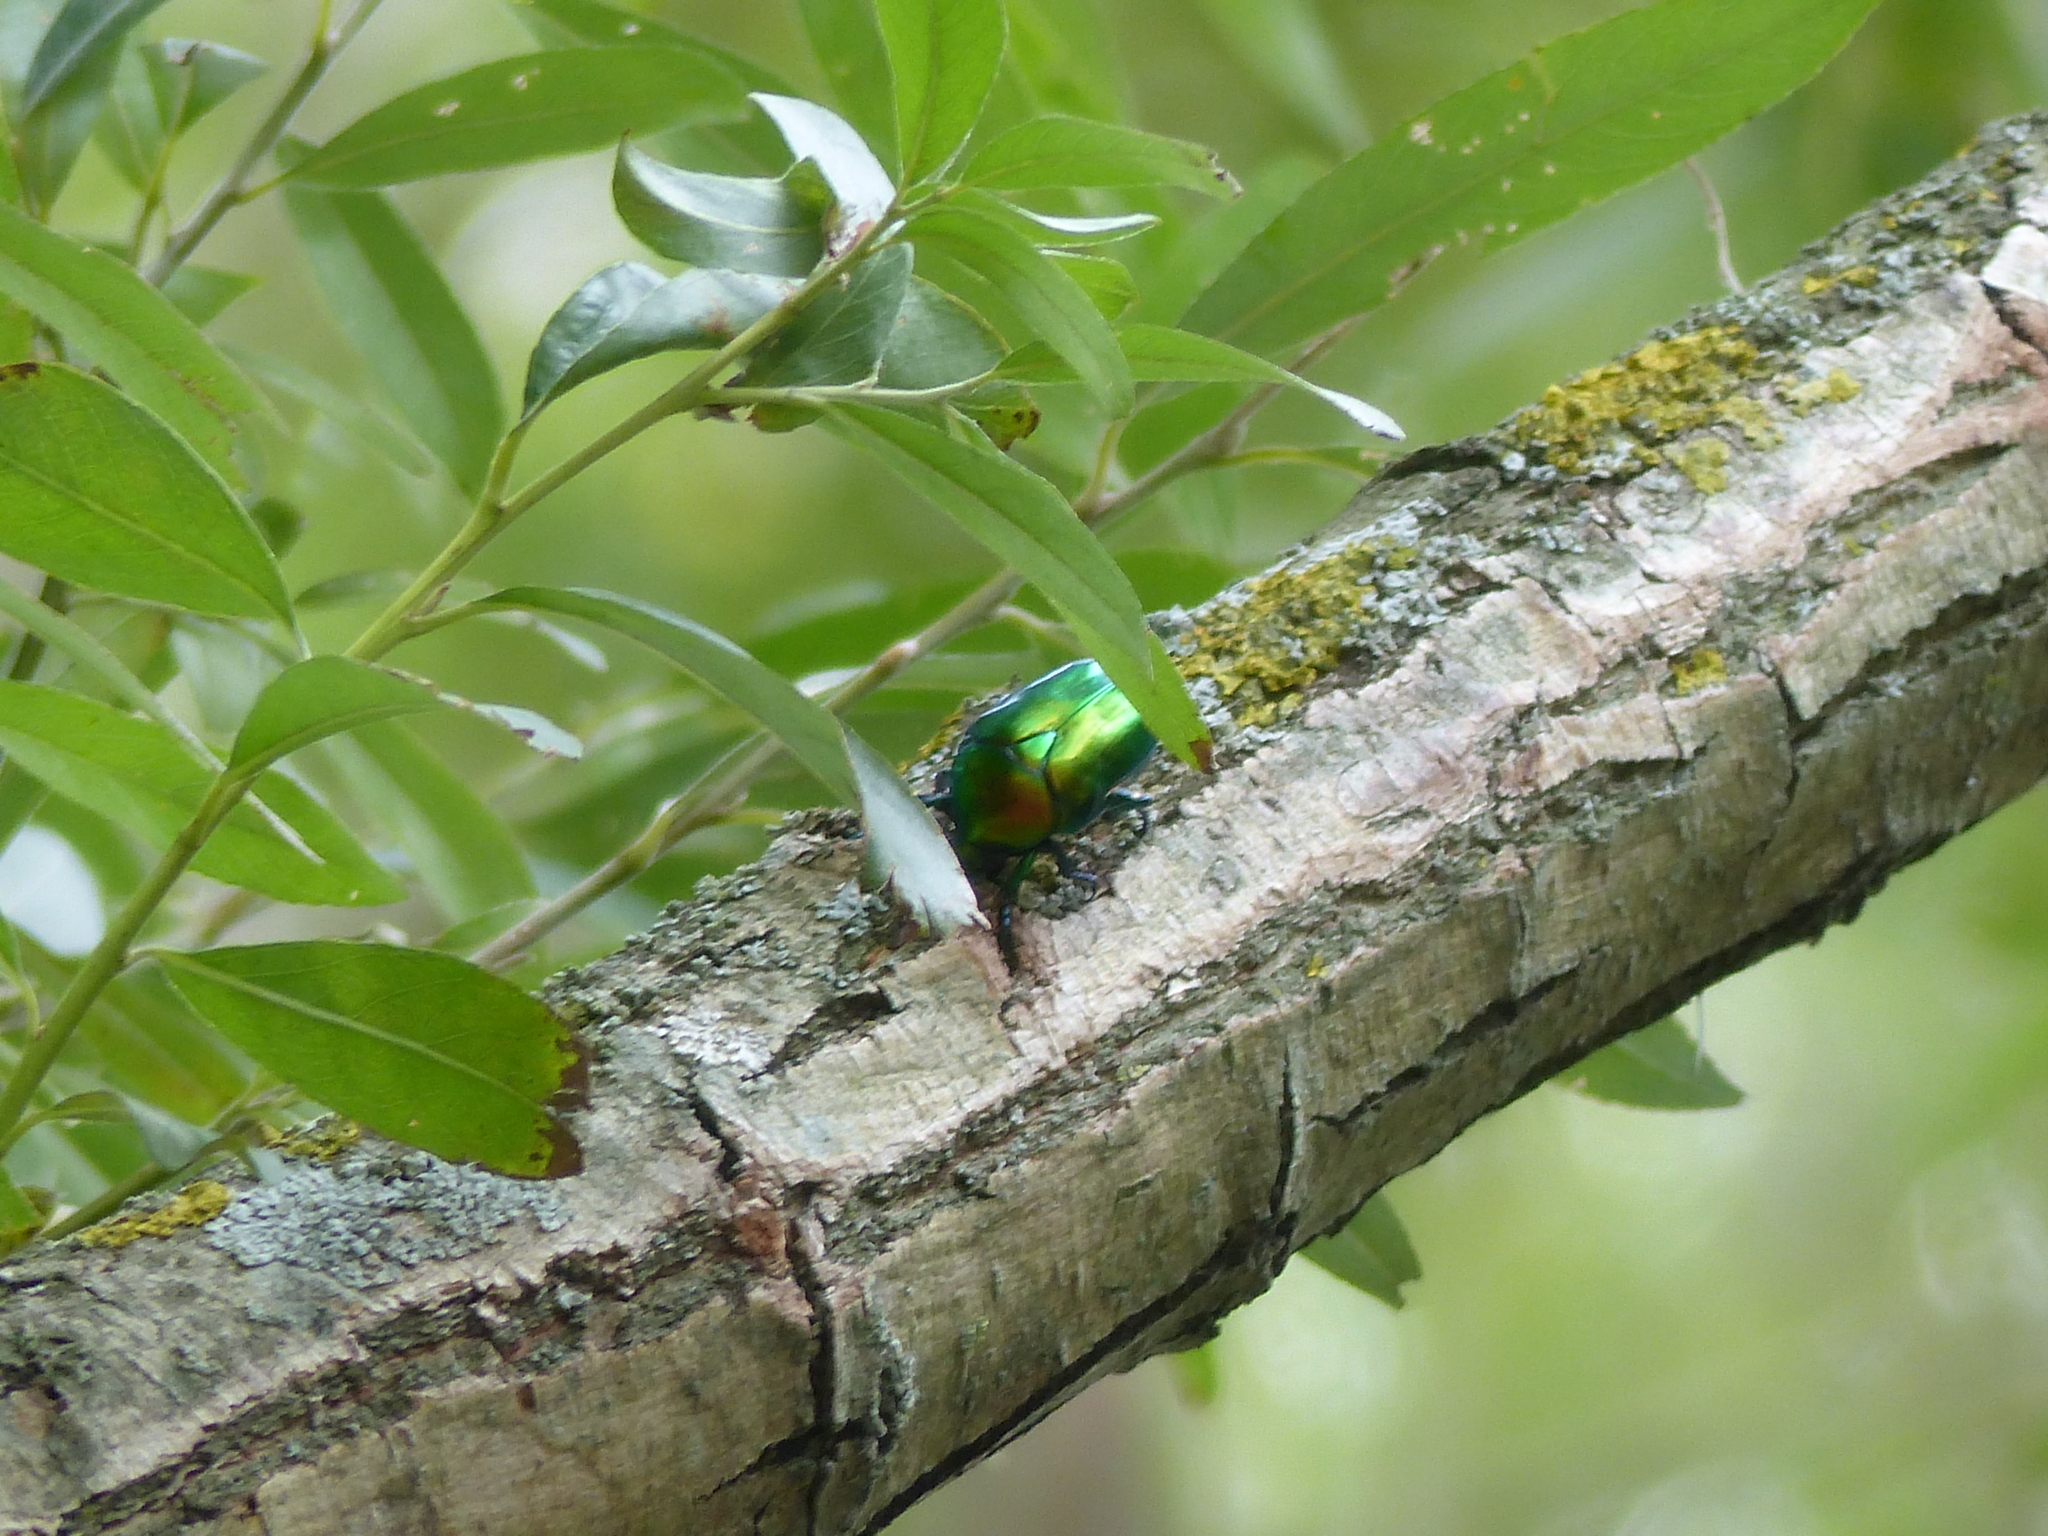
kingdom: Animalia
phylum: Arthropoda
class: Insecta
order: Coleoptera
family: Scarabaeidae
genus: Protaetia
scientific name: Protaetia affinis
